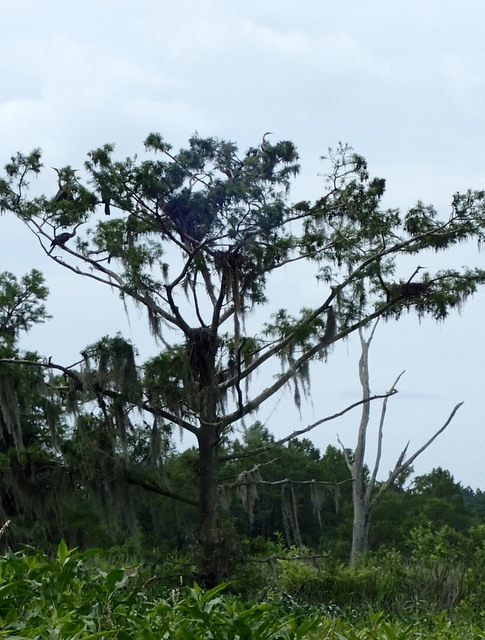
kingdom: Animalia
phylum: Chordata
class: Aves
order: Suliformes
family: Anhingidae
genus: Anhinga
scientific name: Anhinga anhinga
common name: Anhinga
